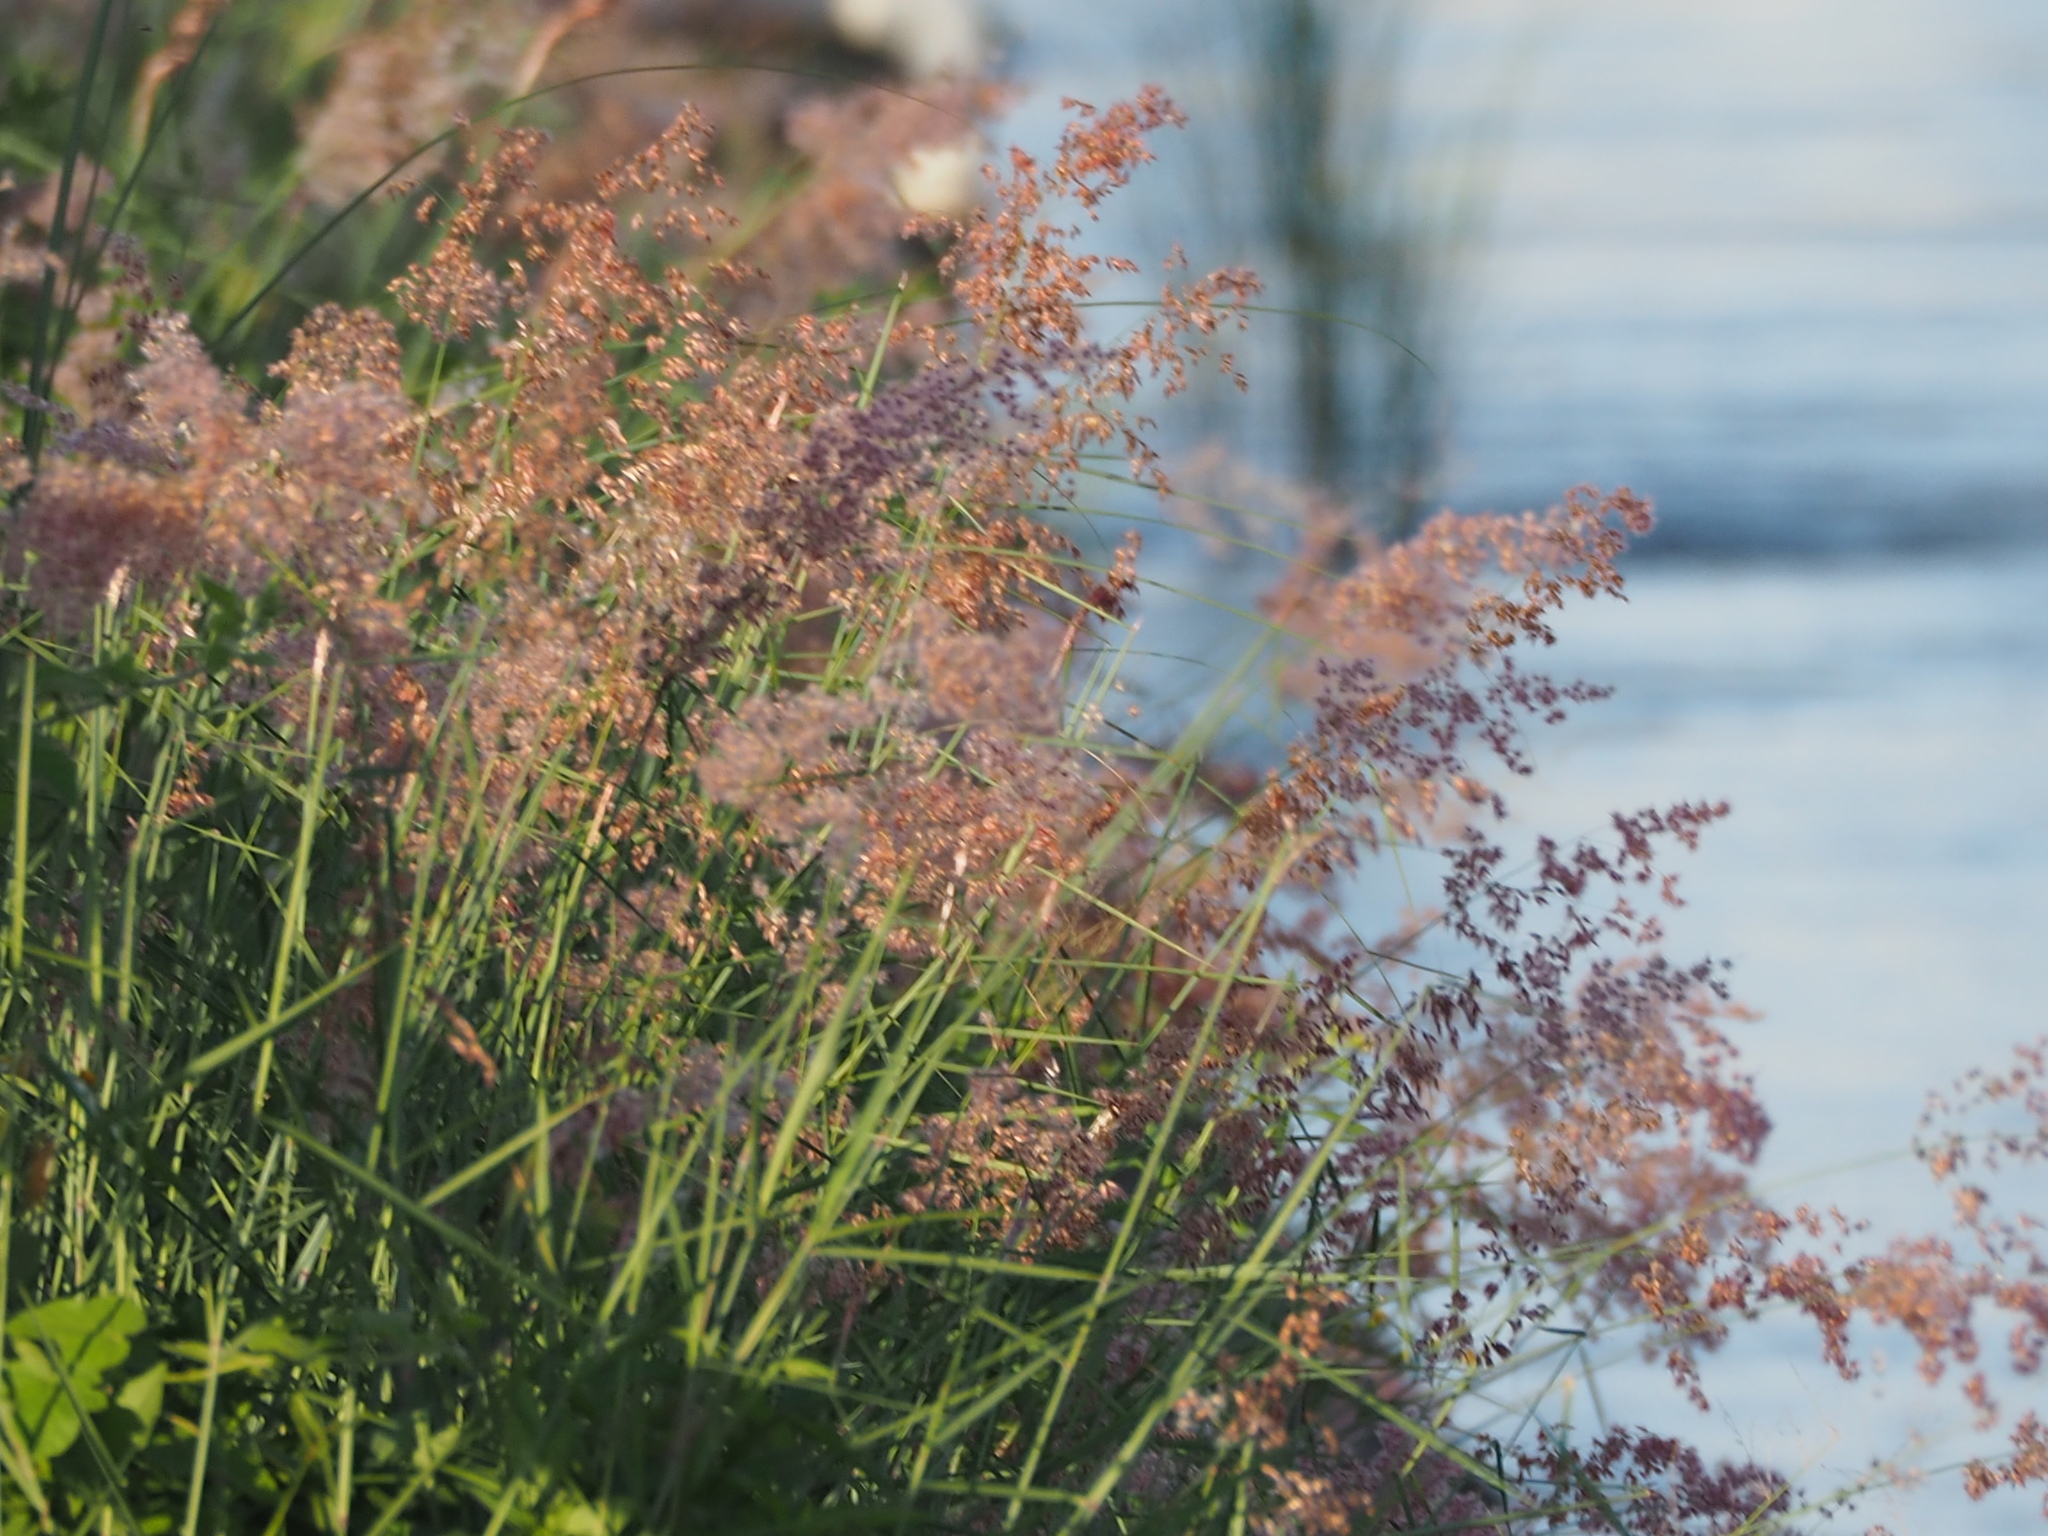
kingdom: Plantae
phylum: Tracheophyta
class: Liliopsida
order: Poales
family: Poaceae
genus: Melinis
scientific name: Melinis repens
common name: Rose natal grass
